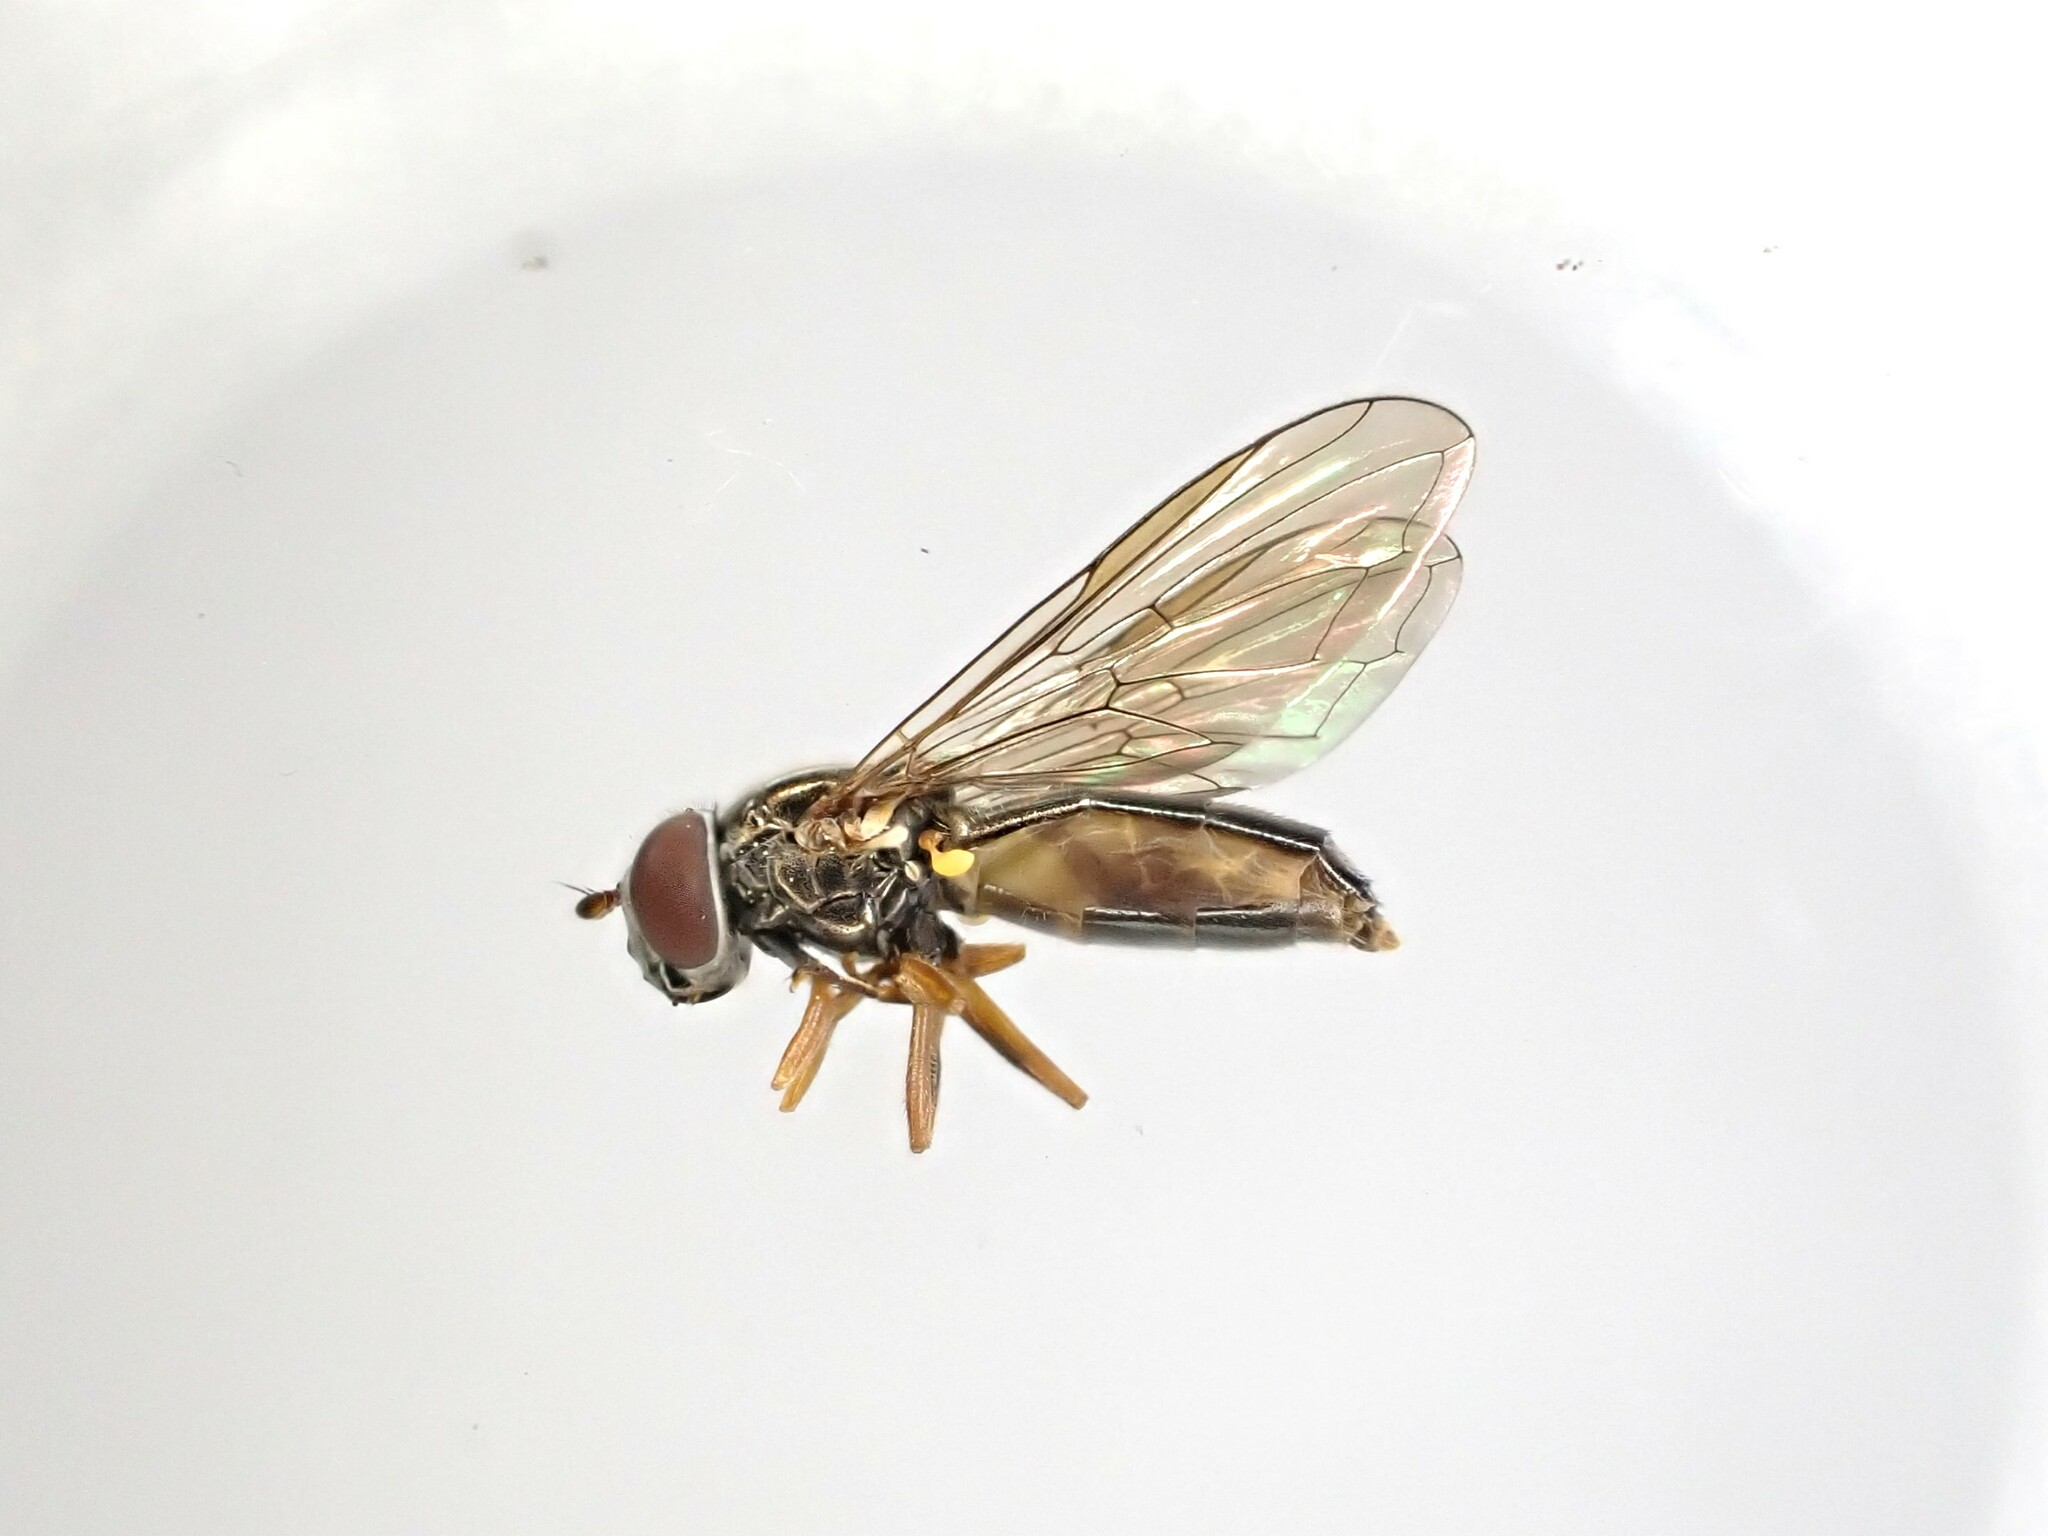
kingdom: Animalia
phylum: Arthropoda
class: Insecta
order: Diptera
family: Syrphidae
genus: Melanostoma
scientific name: Melanostoma fasciatum
